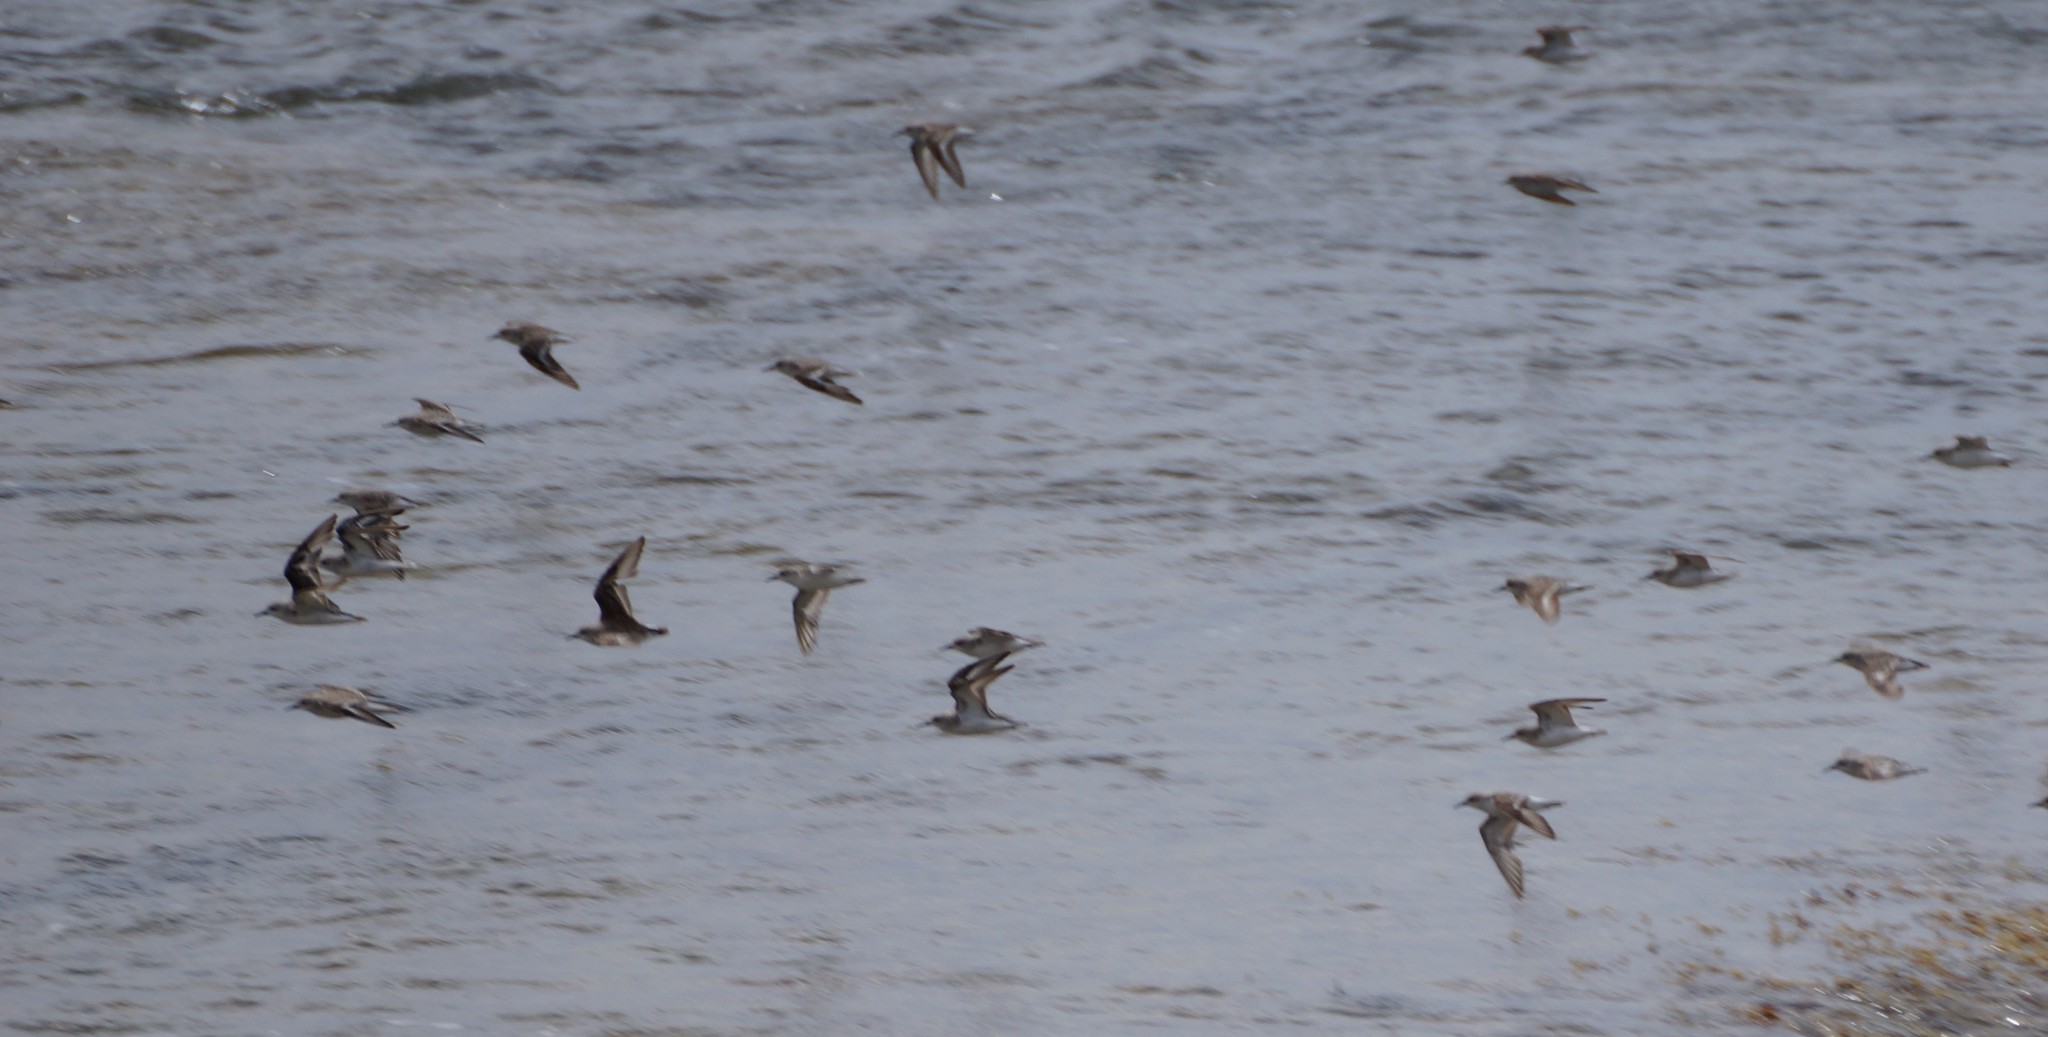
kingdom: Animalia
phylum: Chordata
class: Aves
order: Charadriiformes
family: Scolopacidae
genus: Calidris
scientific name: Calidris ruficollis
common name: Red-necked stint
